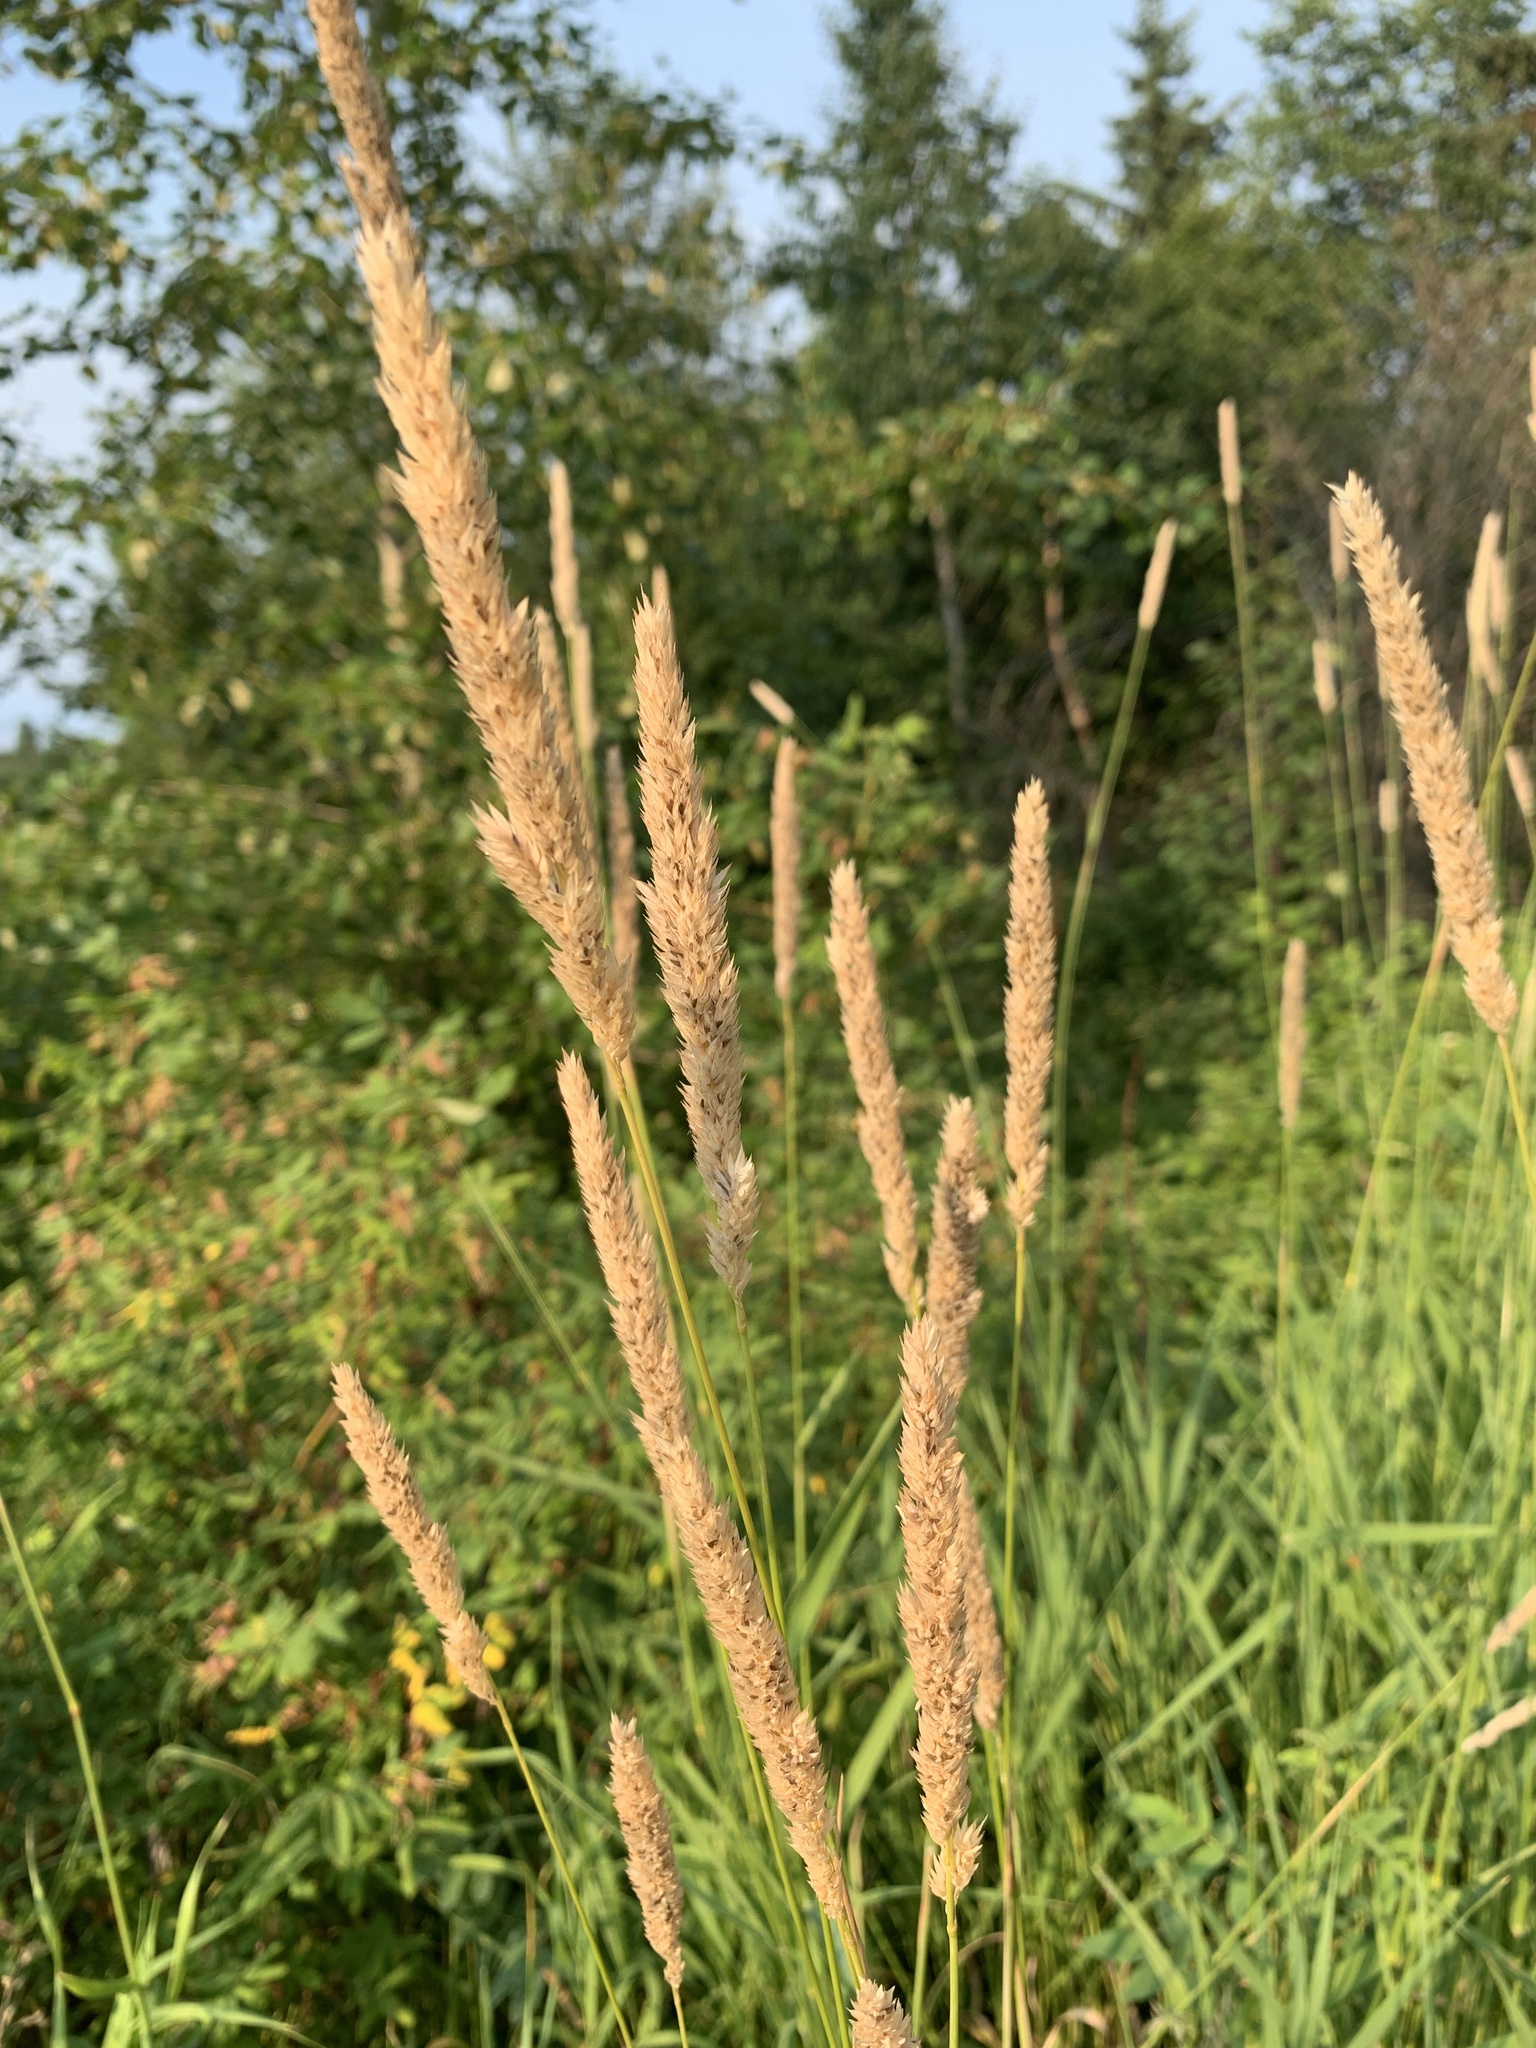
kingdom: Plantae
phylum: Tracheophyta
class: Liliopsida
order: Poales
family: Poaceae
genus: Phalaris
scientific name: Phalaris arundinacea
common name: Reed canary-grass
